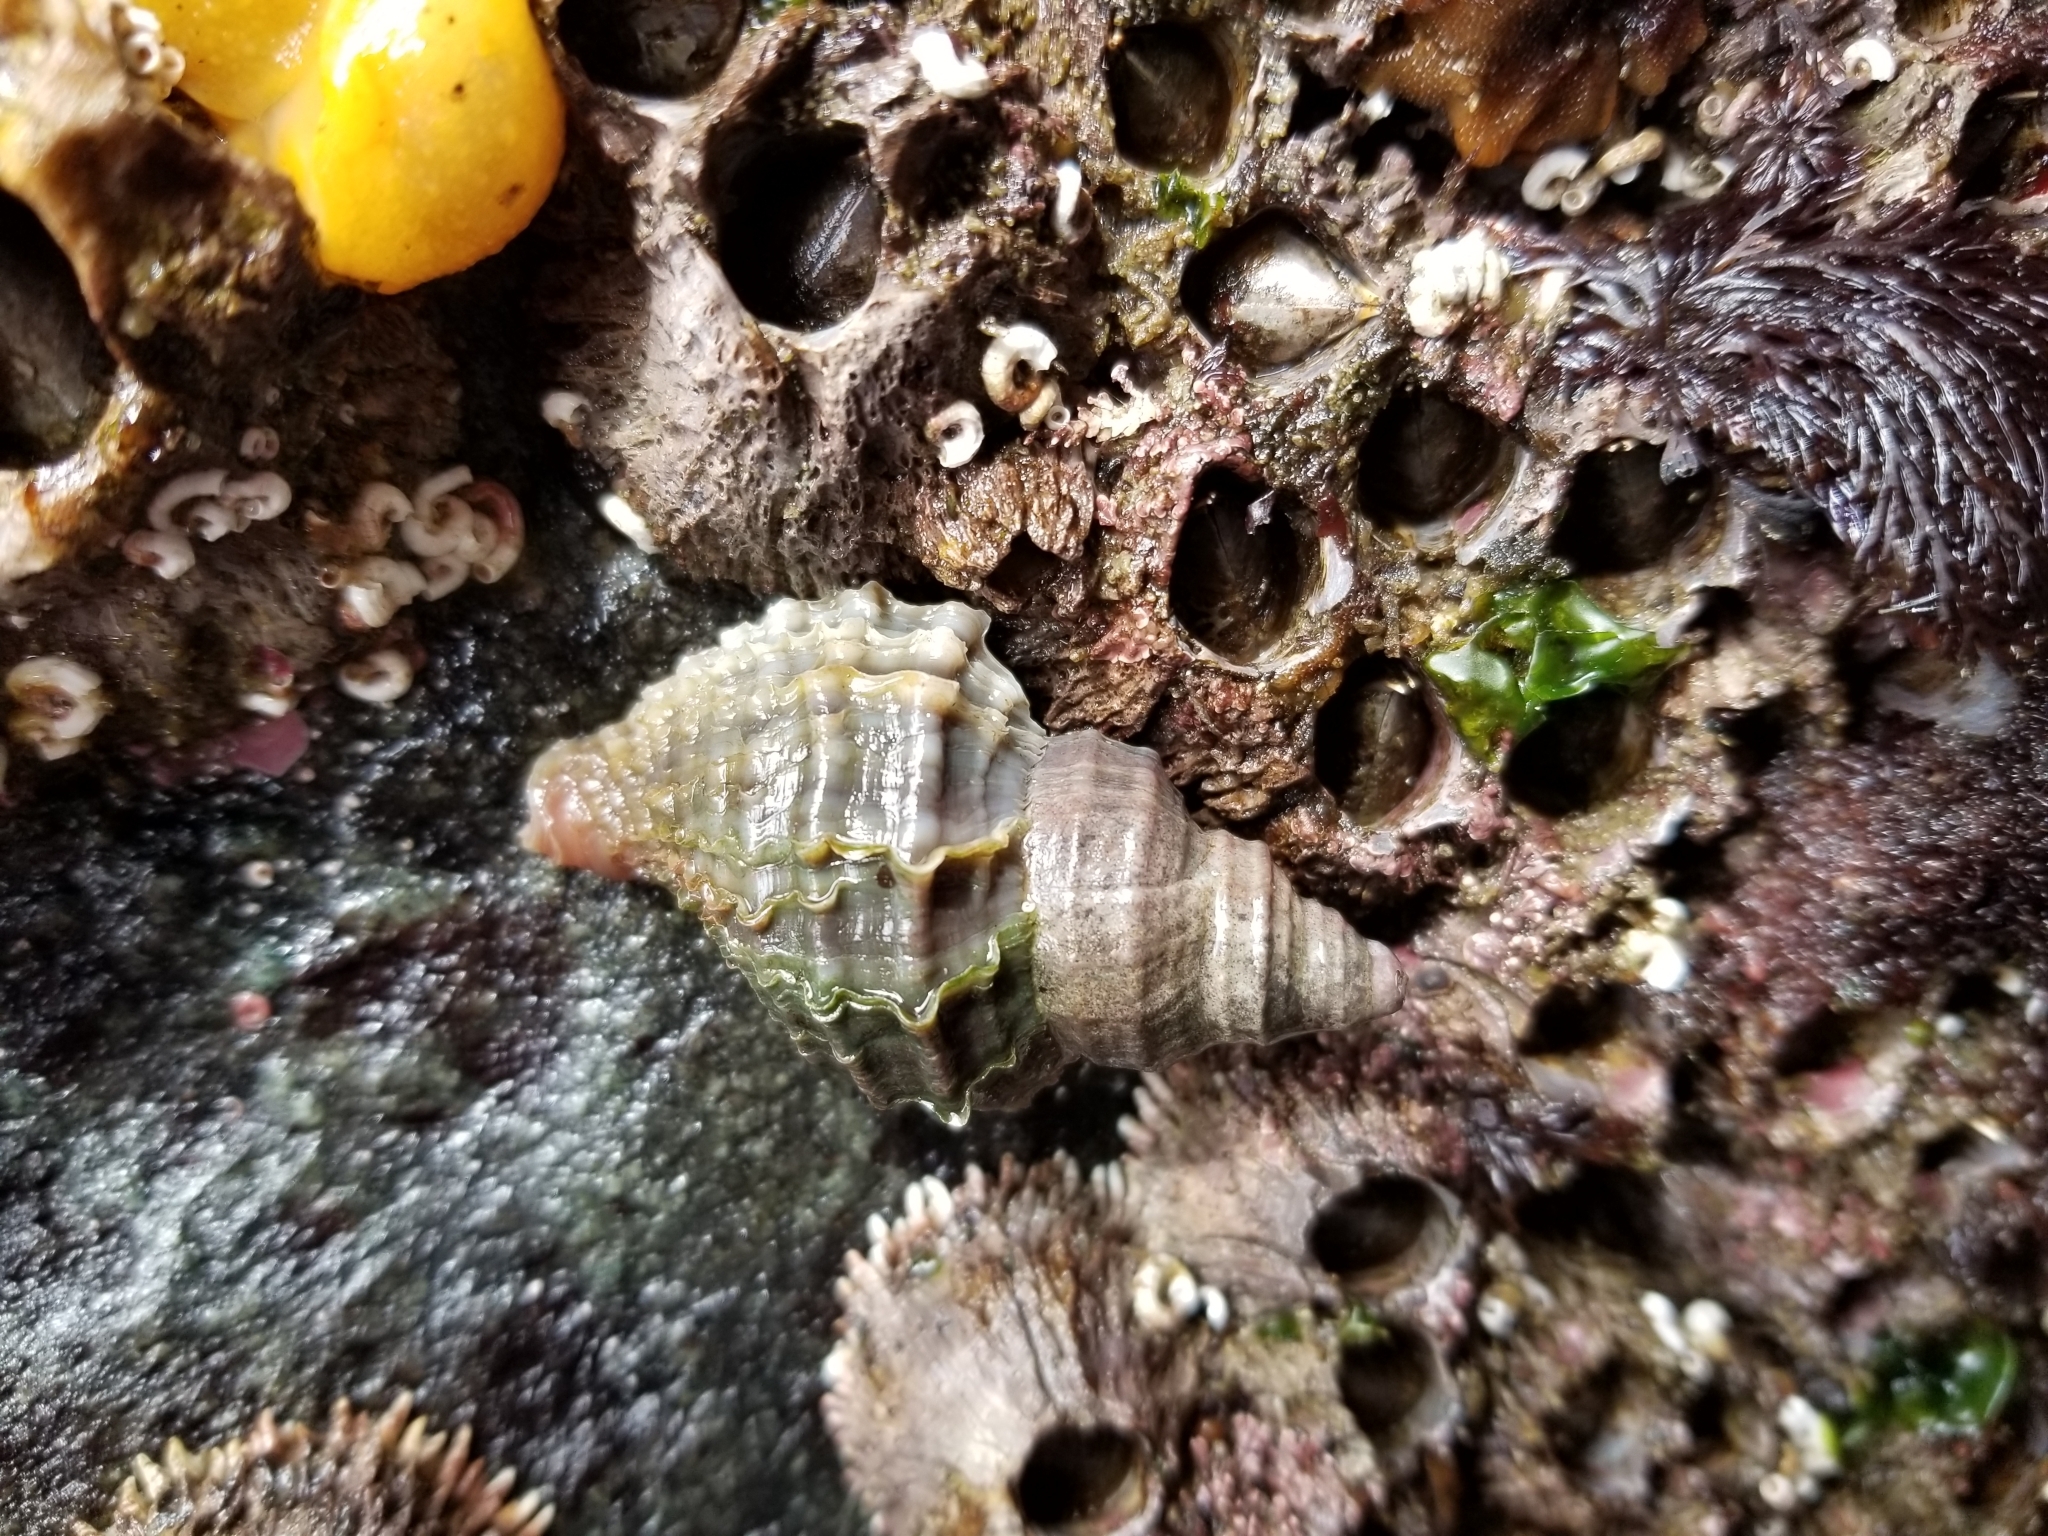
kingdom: Animalia
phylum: Mollusca
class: Gastropoda
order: Neogastropoda
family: Muricidae
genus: Nucella
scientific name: Nucella lamellosa
